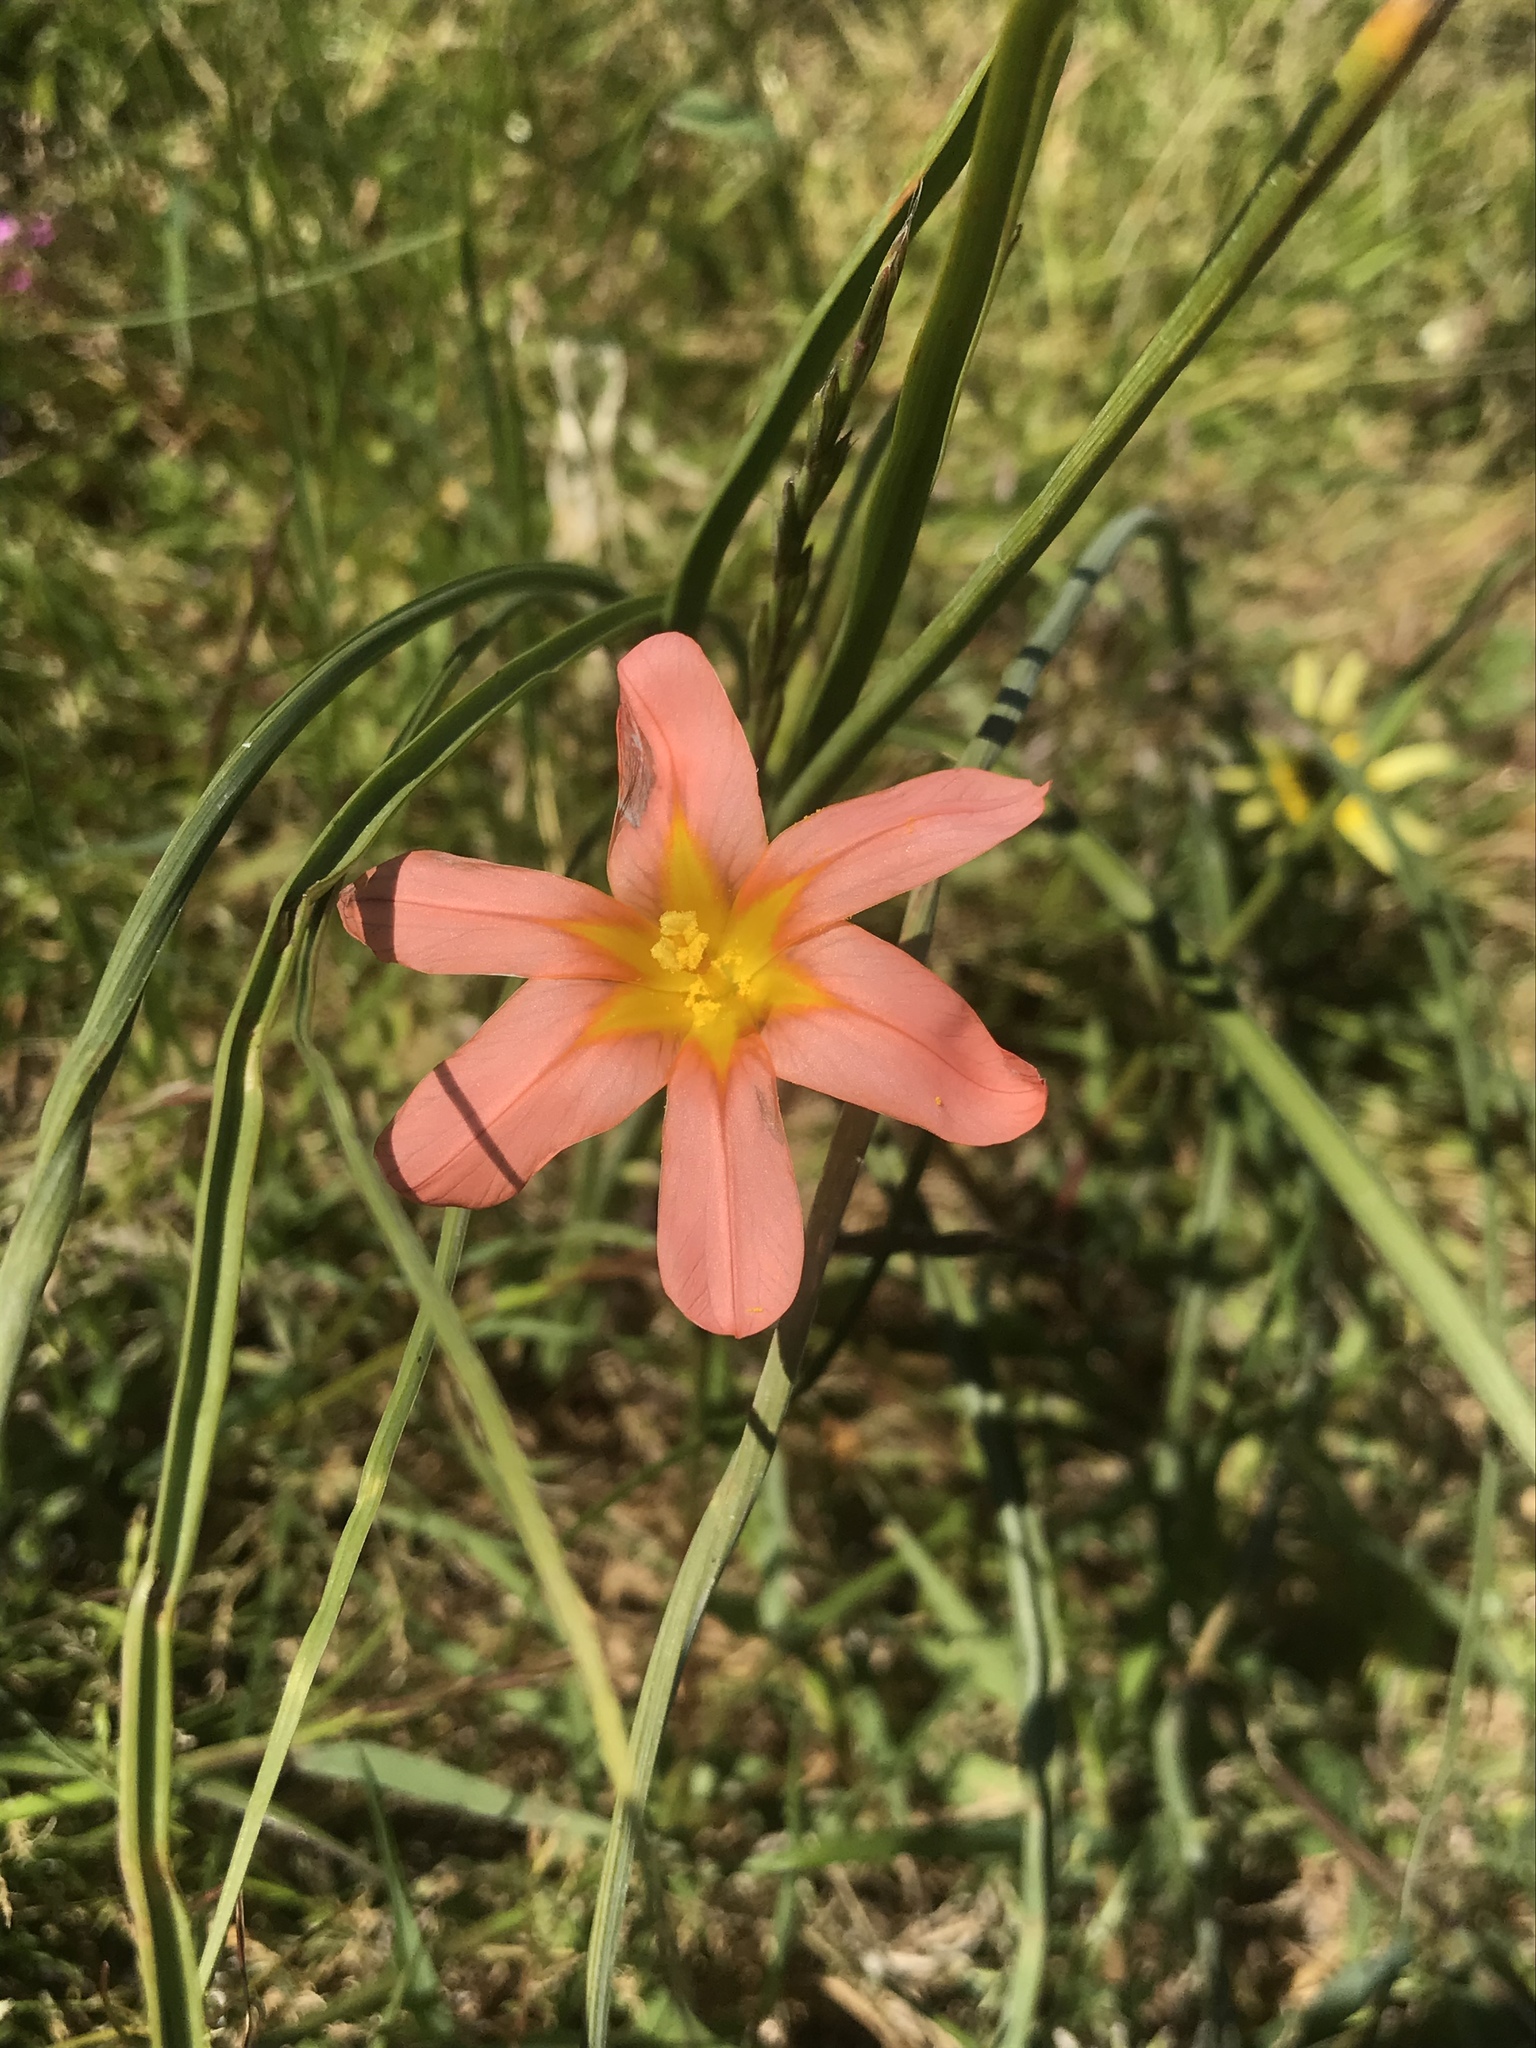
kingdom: Plantae
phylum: Tracheophyta
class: Liliopsida
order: Asparagales
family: Iridaceae
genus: Moraea
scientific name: Moraea flaccida
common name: One-leaf cape-tulip
